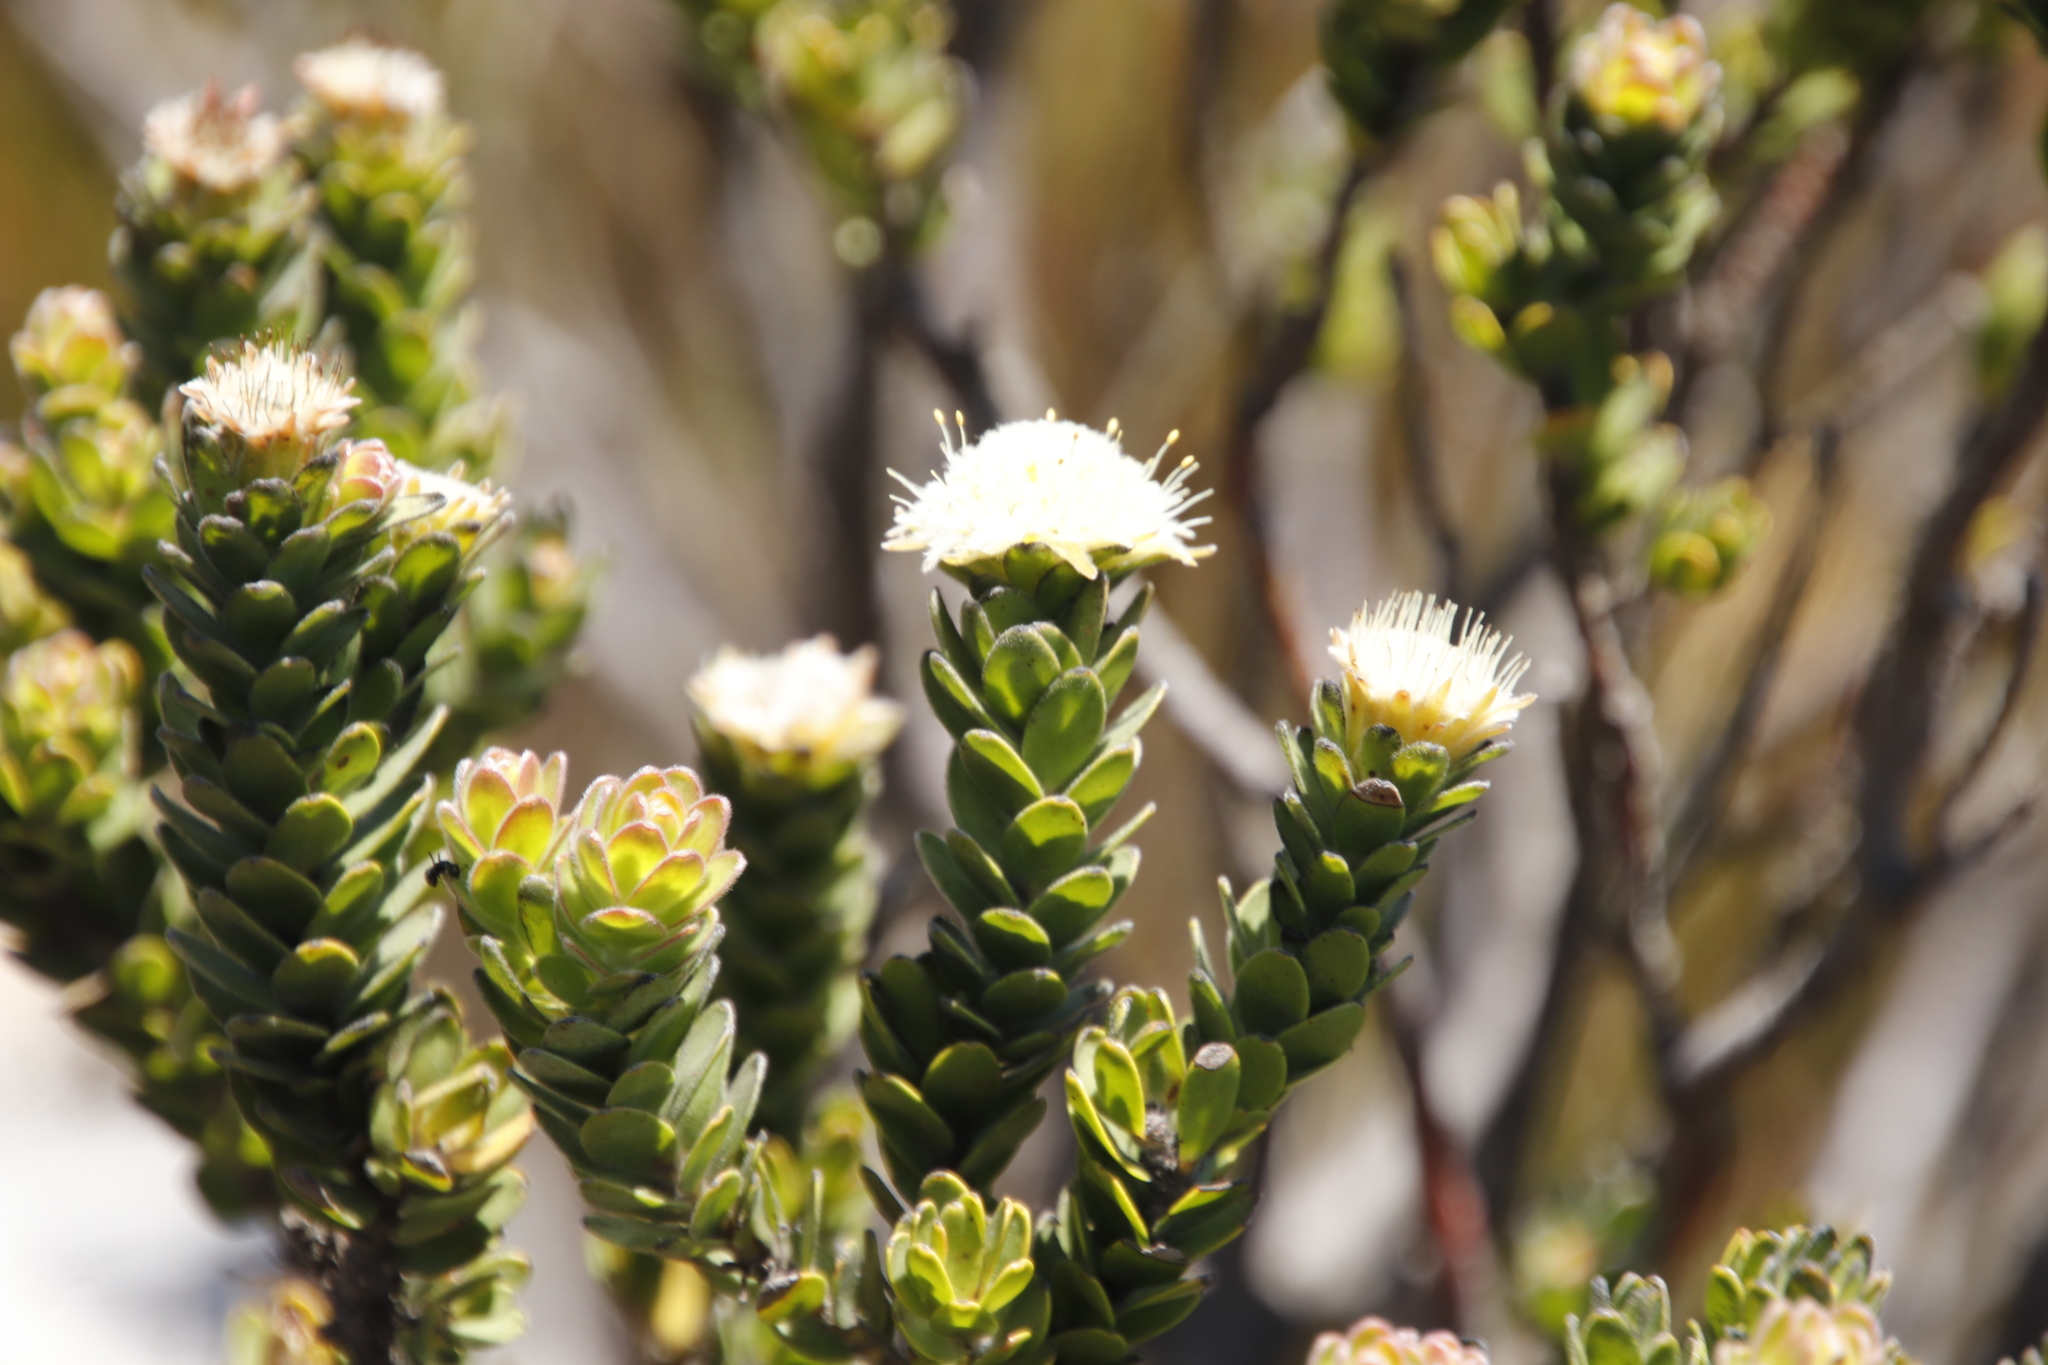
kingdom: Plantae
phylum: Tracheophyta
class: Magnoliopsida
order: Proteales
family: Proteaceae
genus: Diastella
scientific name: Diastella thymelaeoides
